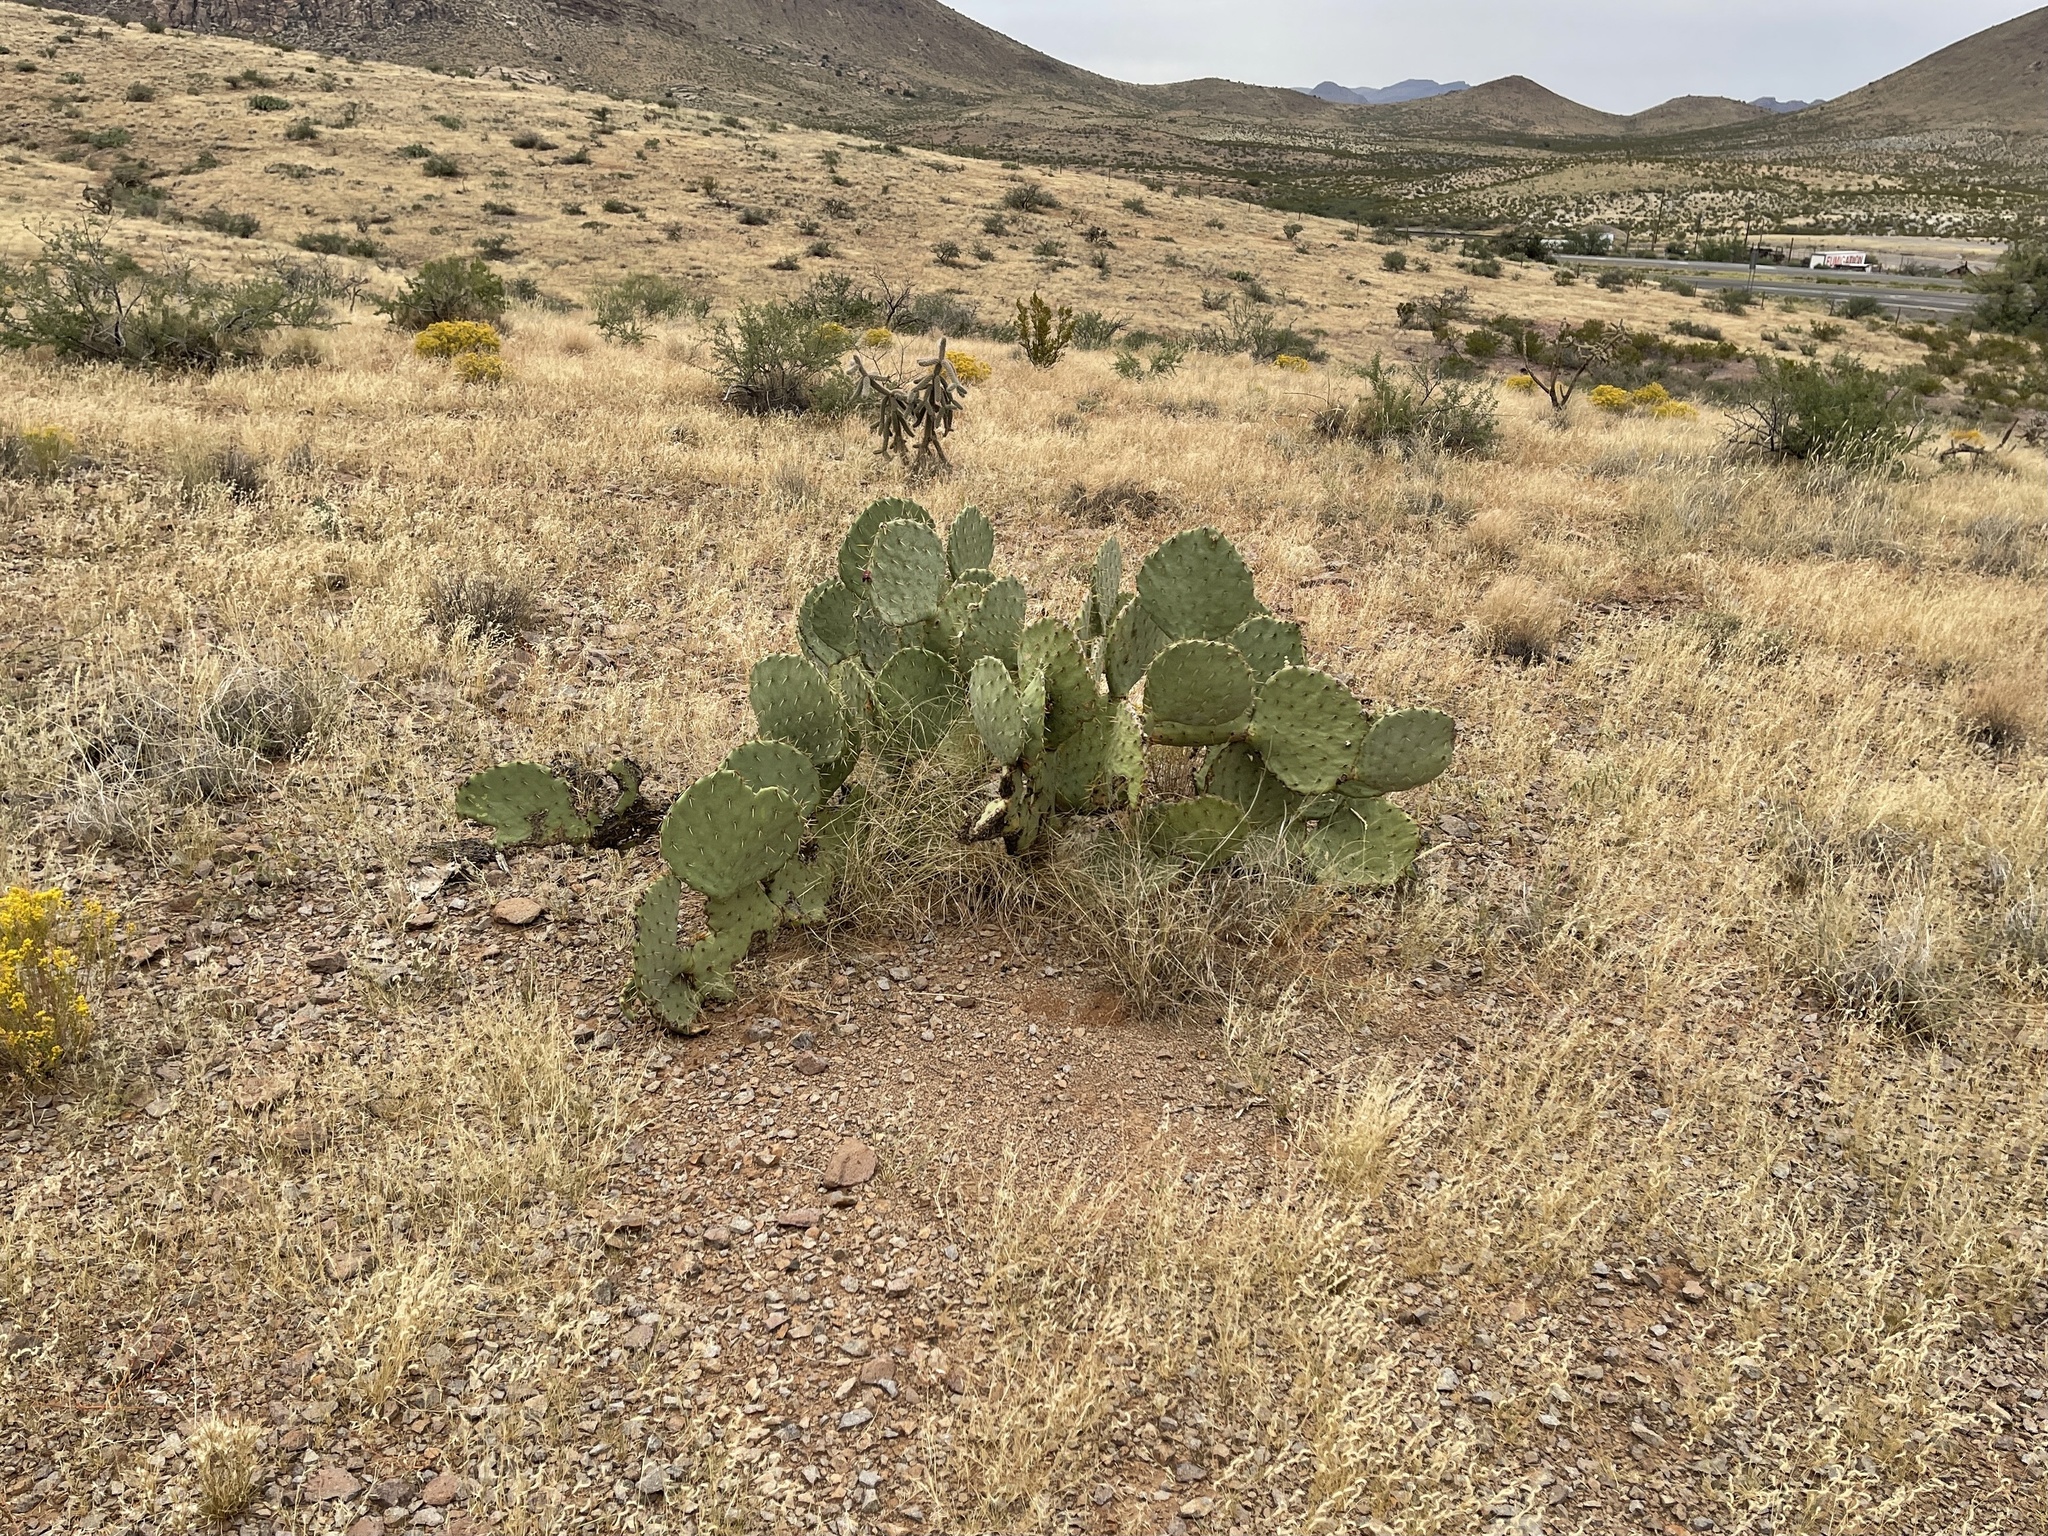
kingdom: Plantae
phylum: Tracheophyta
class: Magnoliopsida
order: Caryophyllales
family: Cactaceae
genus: Opuntia
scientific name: Opuntia engelmannii
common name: Cactus-apple
